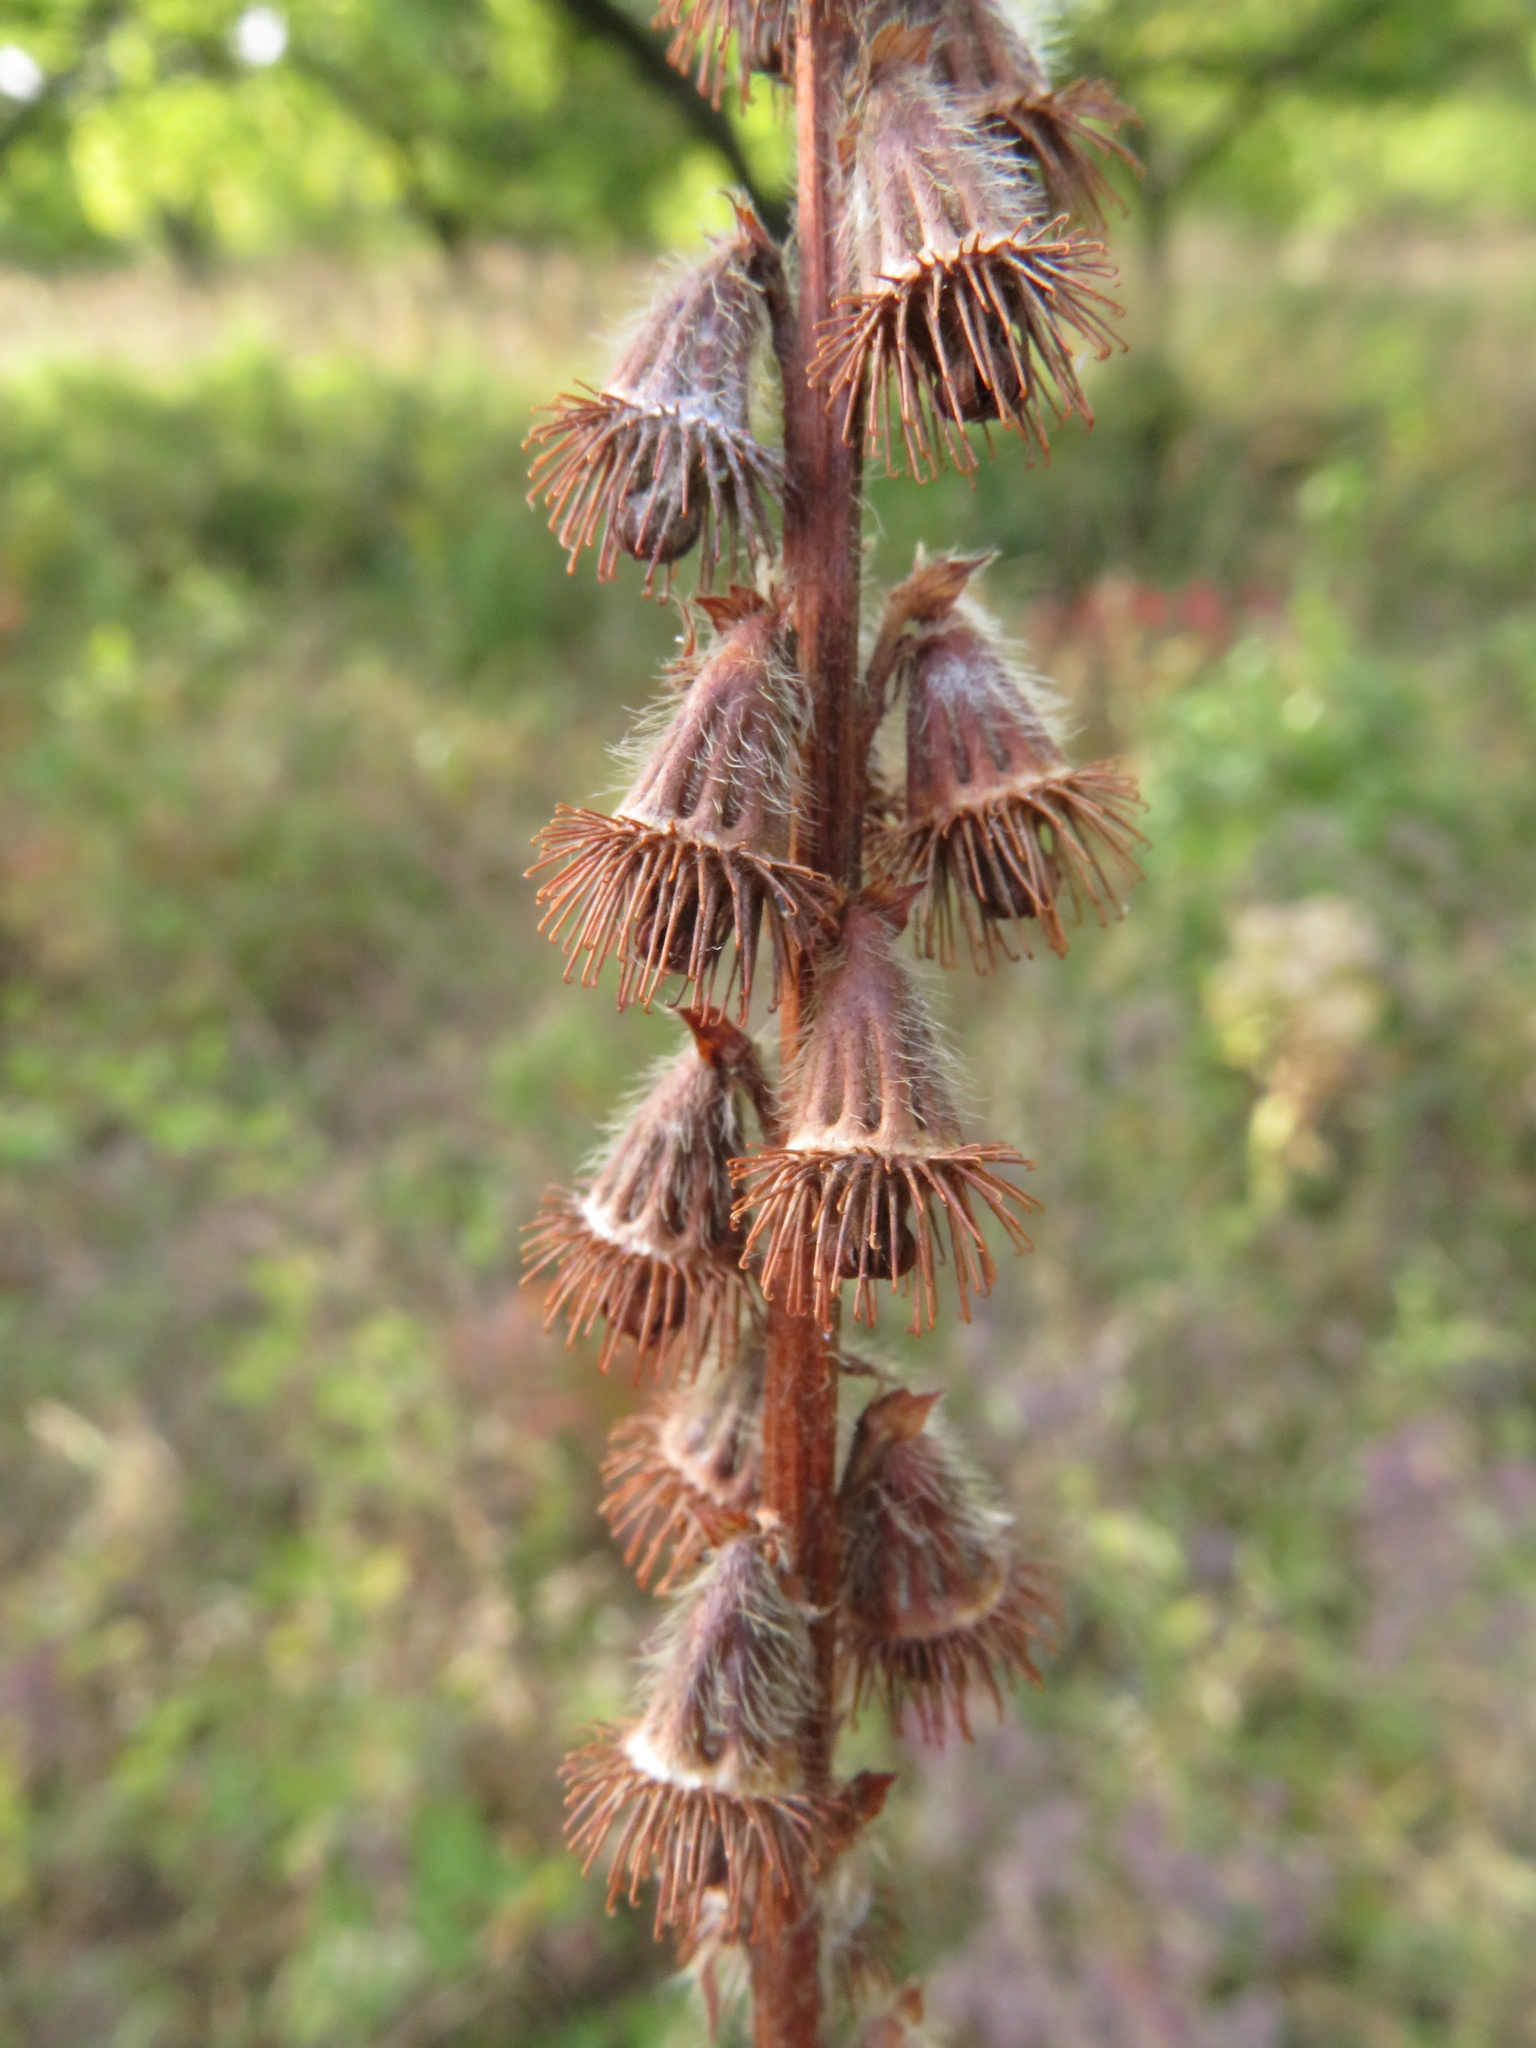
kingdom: Plantae
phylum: Tracheophyta
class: Magnoliopsida
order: Rosales
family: Rosaceae
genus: Agrimonia
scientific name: Agrimonia eupatoria
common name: Agrimony
